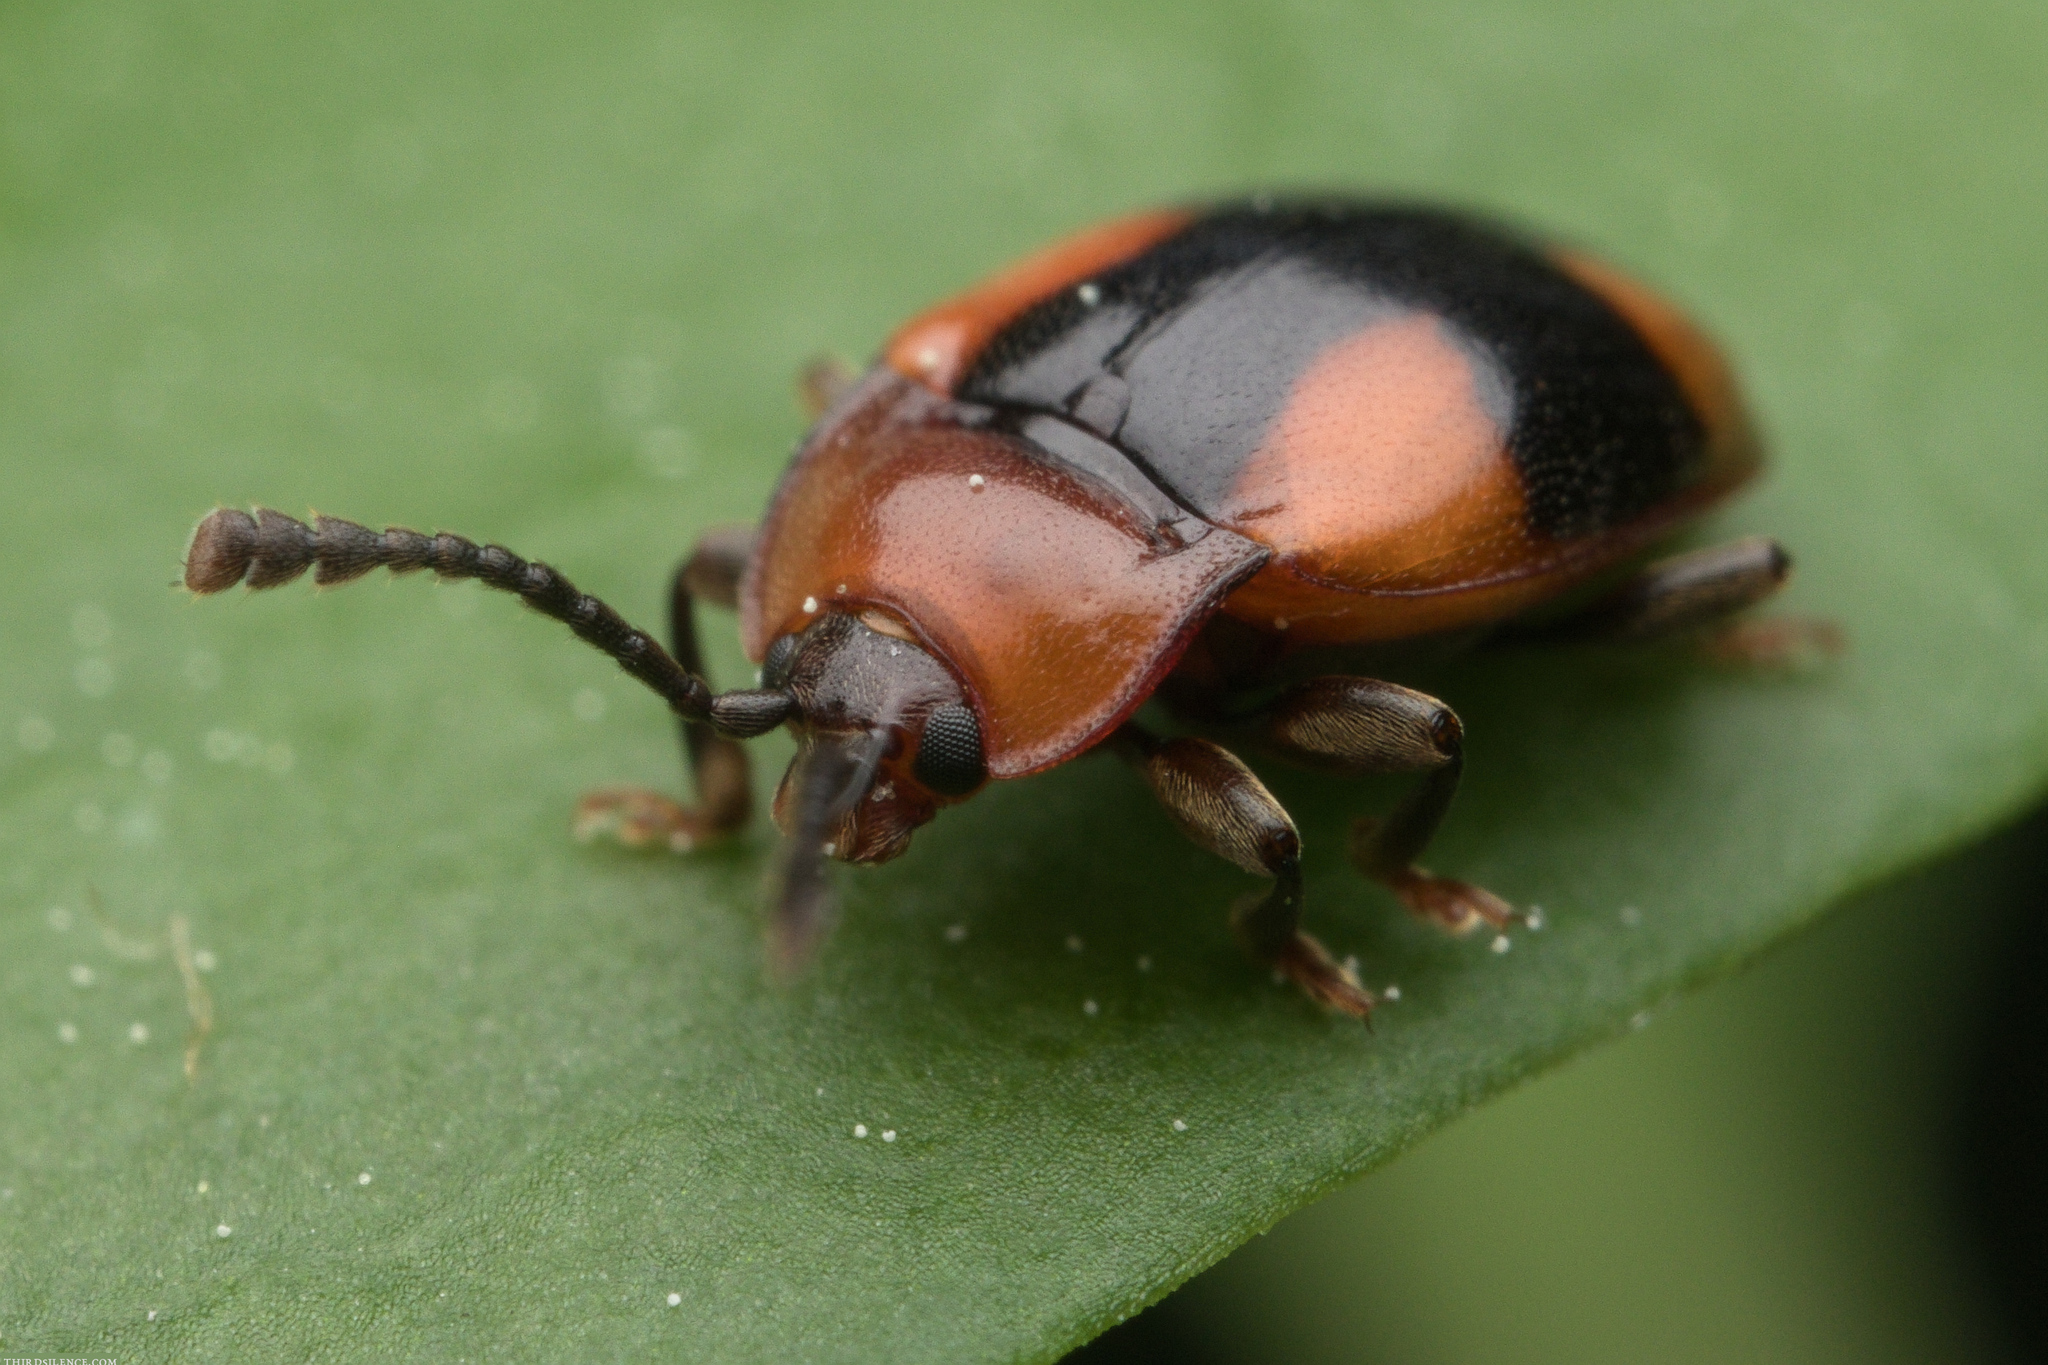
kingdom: Animalia
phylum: Arthropoda
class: Insecta
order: Coleoptera
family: Endomychidae
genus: Mycetina
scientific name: Mycetina cruciata
